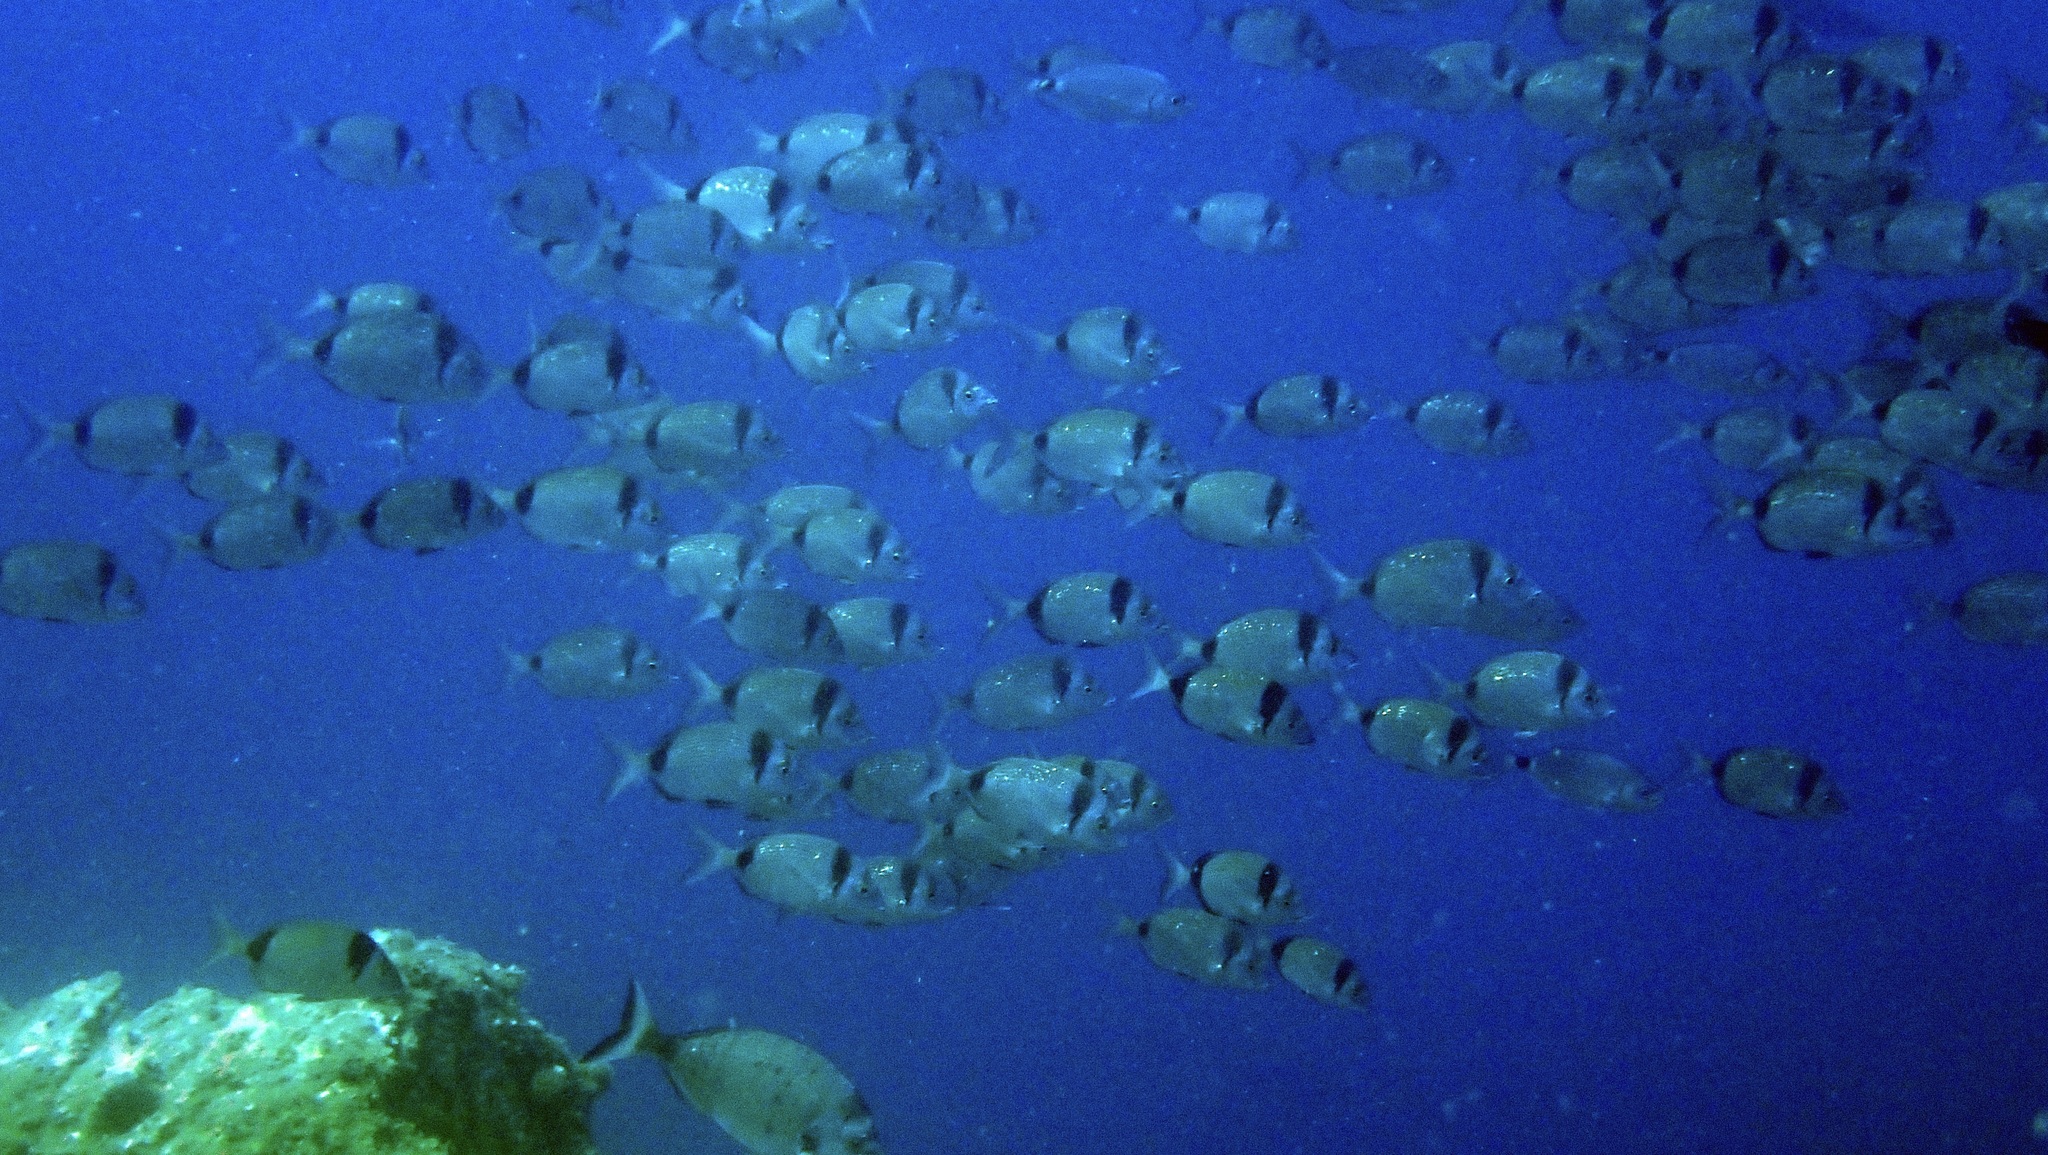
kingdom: Animalia
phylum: Chordata
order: Perciformes
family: Sparidae
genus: Diplodus
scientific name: Diplodus vulgaris
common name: Common two-banded seabream
